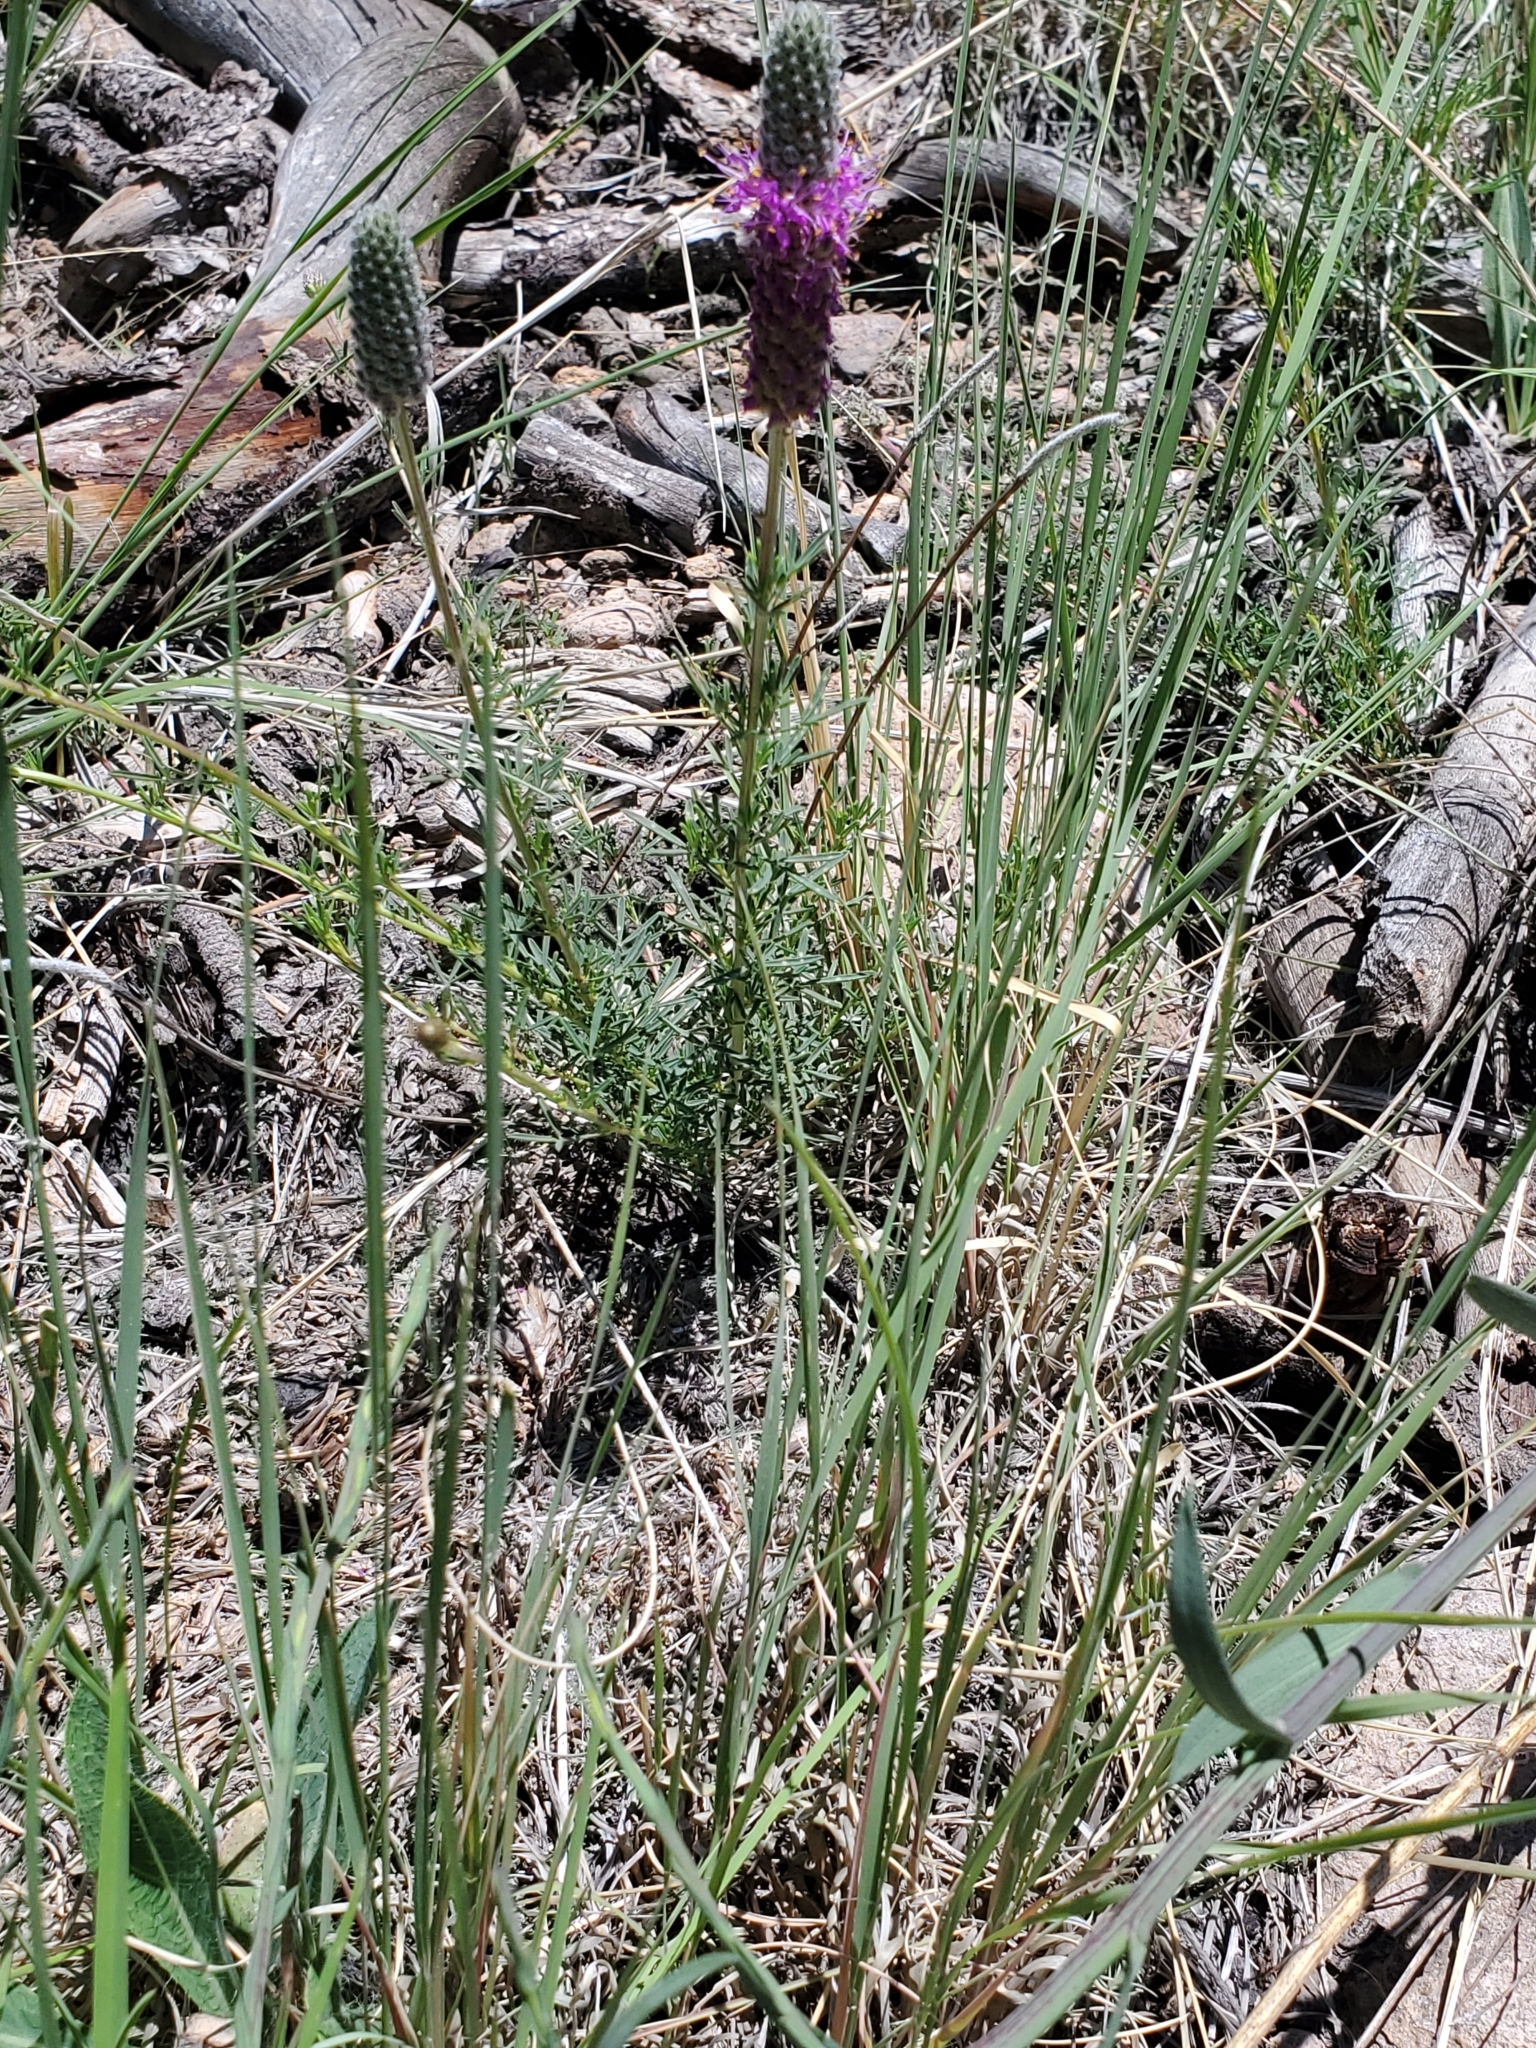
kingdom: Plantae
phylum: Tracheophyta
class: Magnoliopsida
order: Fabales
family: Fabaceae
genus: Dalea
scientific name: Dalea purpurea
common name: Purple prairie-clover
